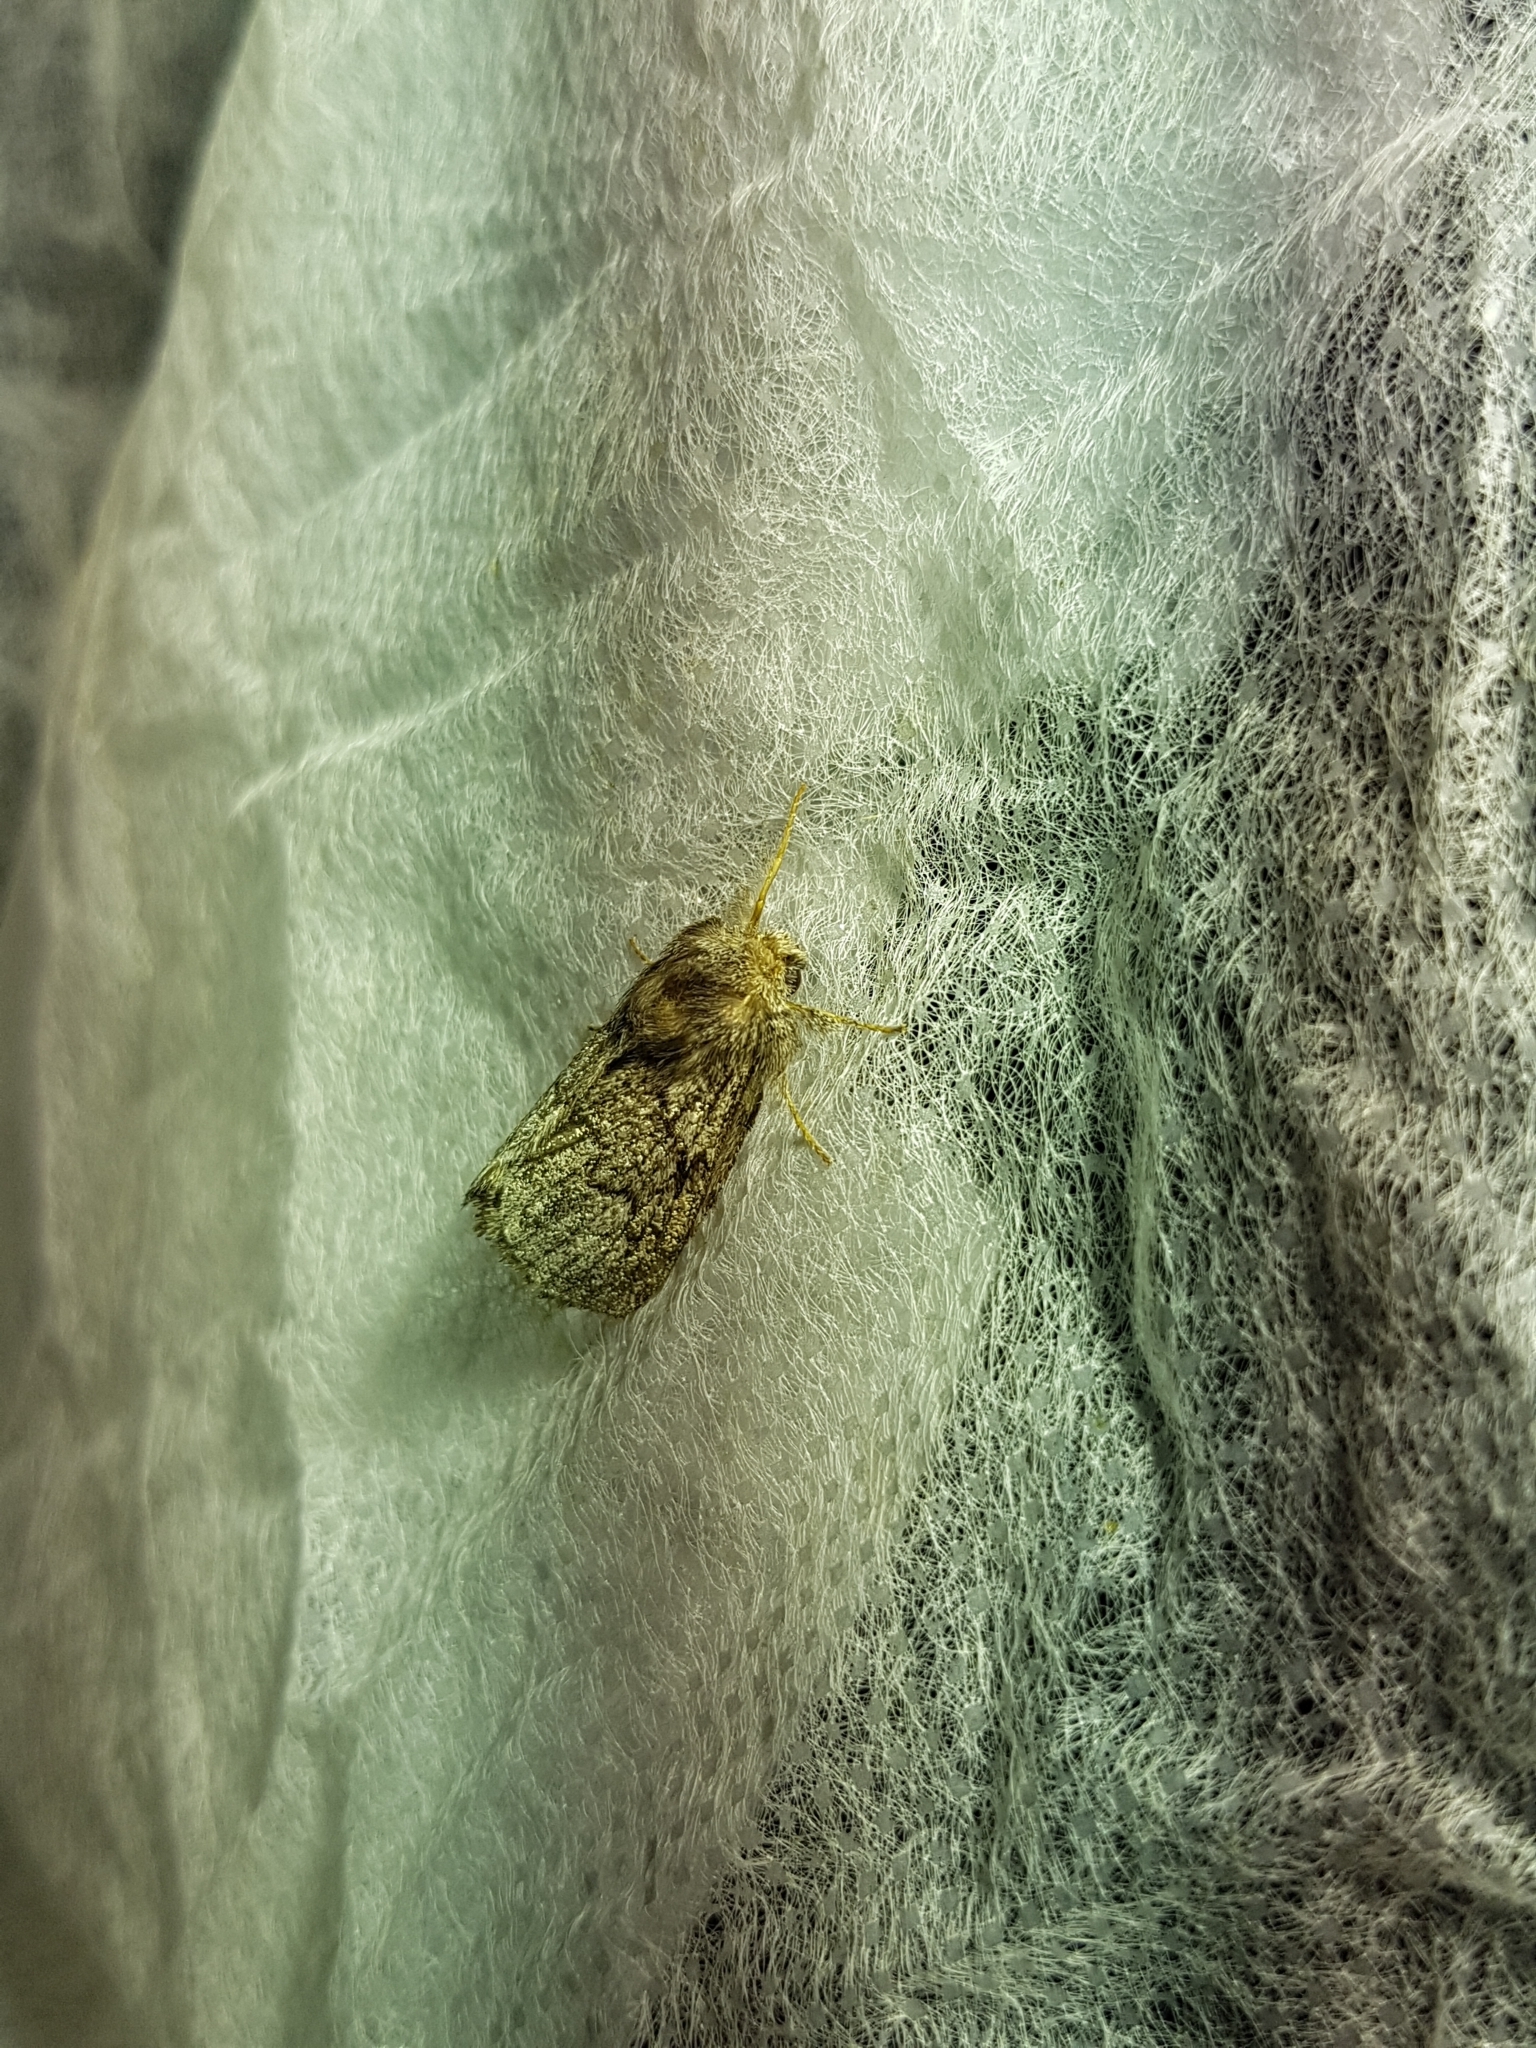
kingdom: Animalia
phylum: Arthropoda
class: Insecta
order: Lepidoptera
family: Lasiocampidae
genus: Trichiura
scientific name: Trichiura crataegi
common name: Pale eggar
